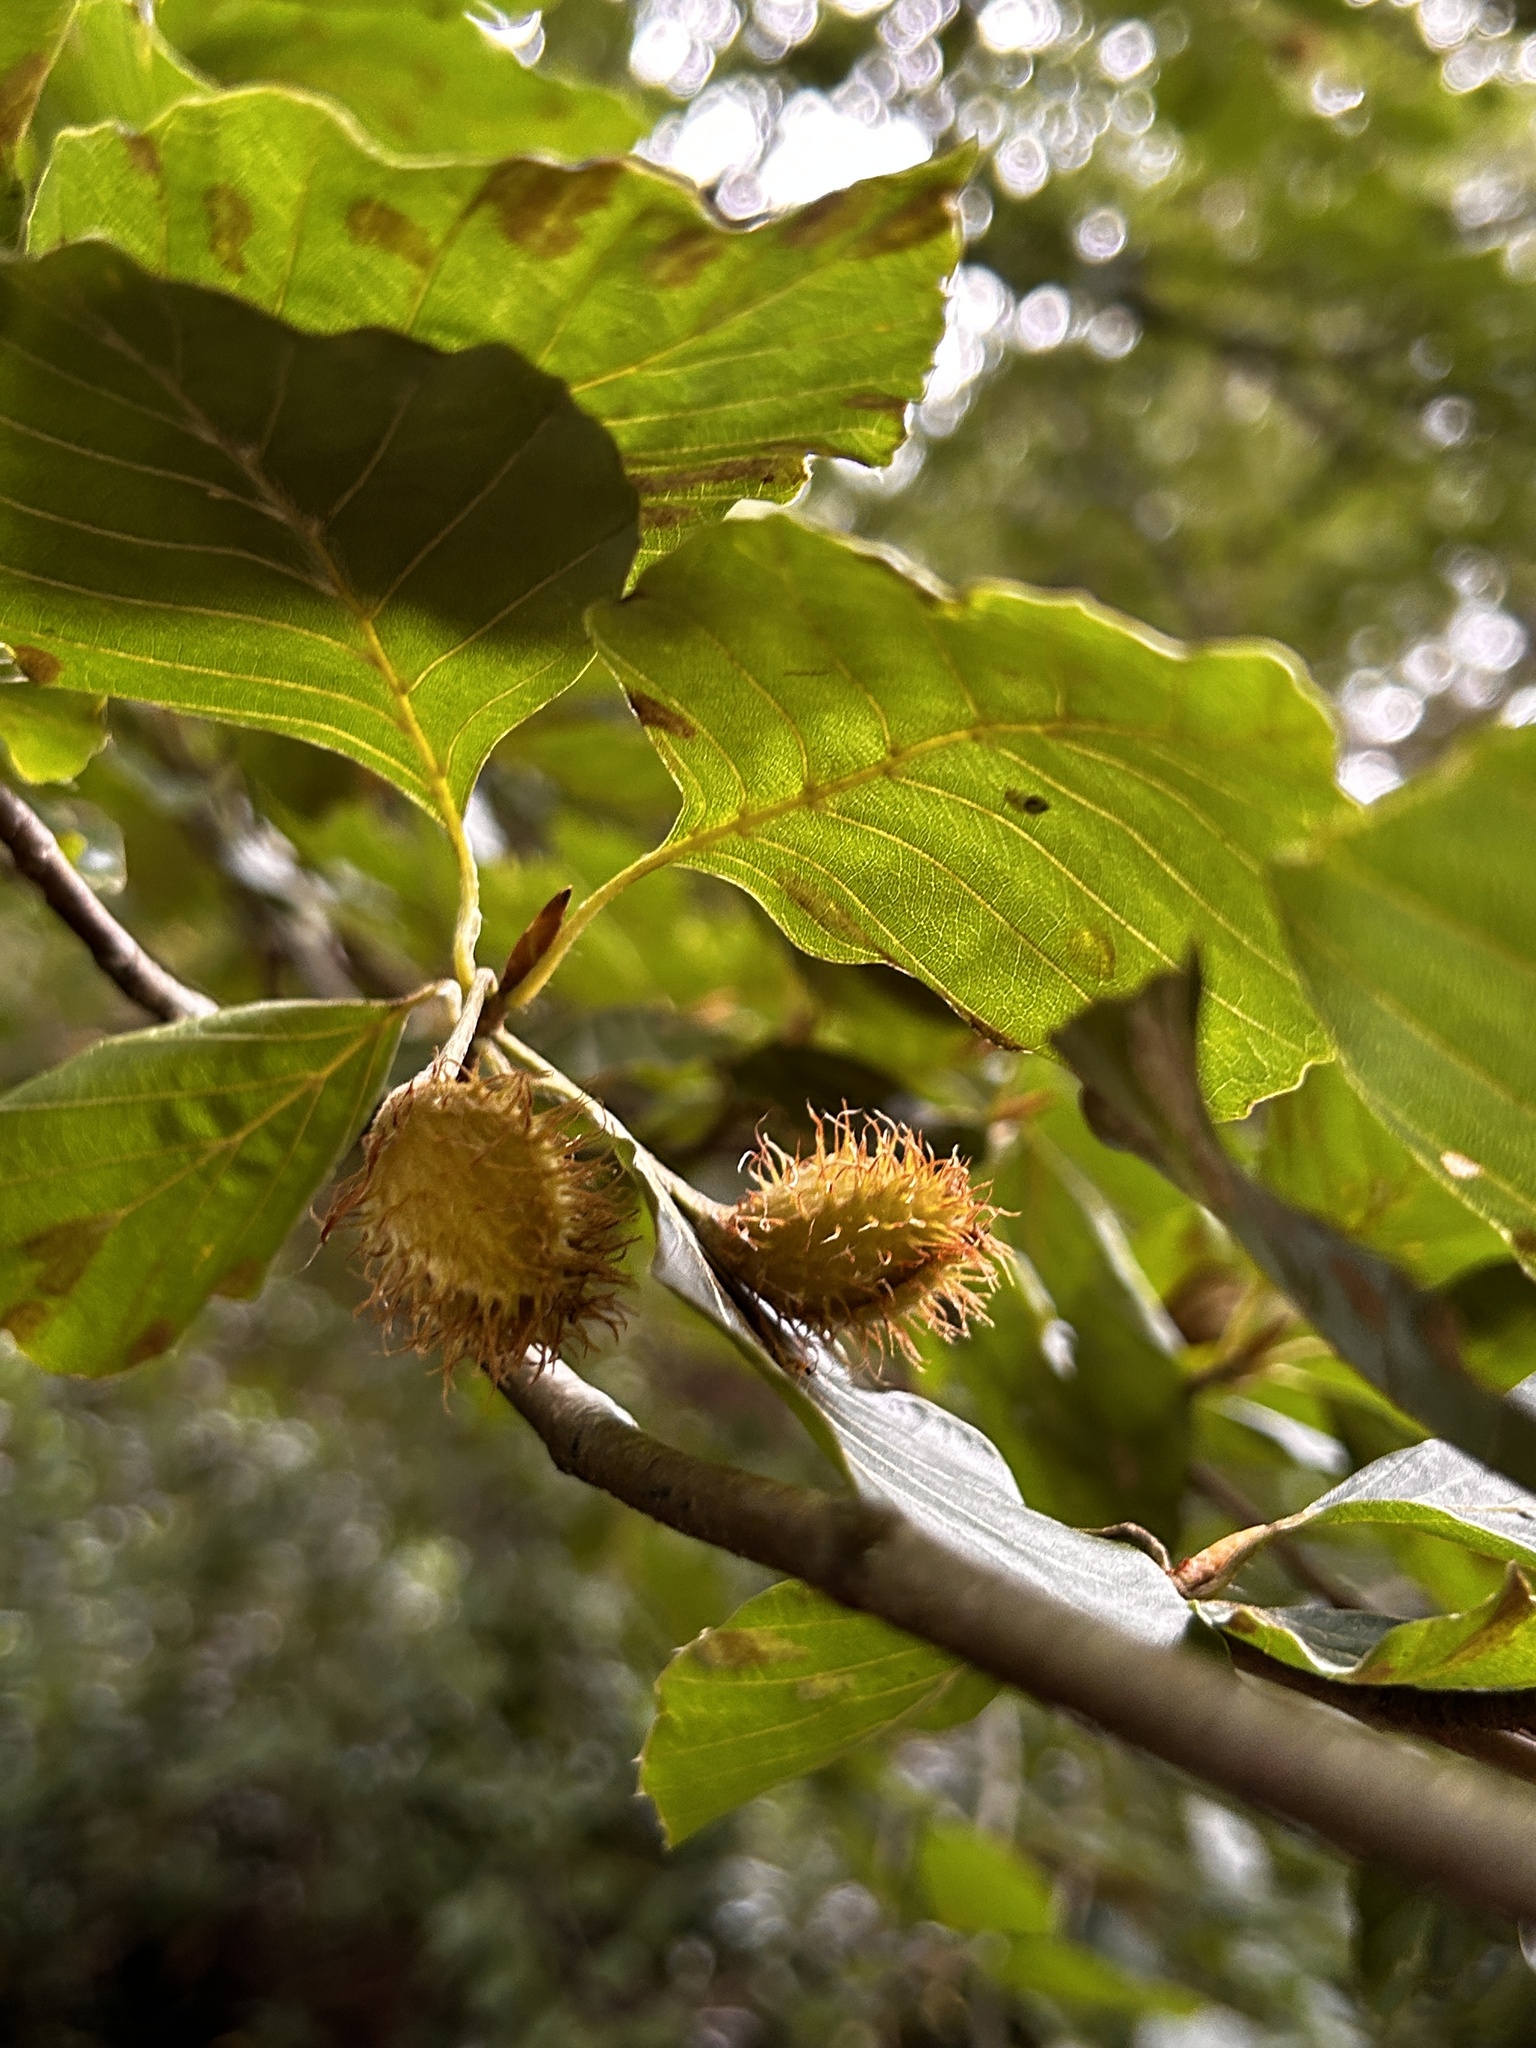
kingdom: Plantae
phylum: Tracheophyta
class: Magnoliopsida
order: Fagales
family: Fagaceae
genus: Fagus
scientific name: Fagus sylvatica
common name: Beech
